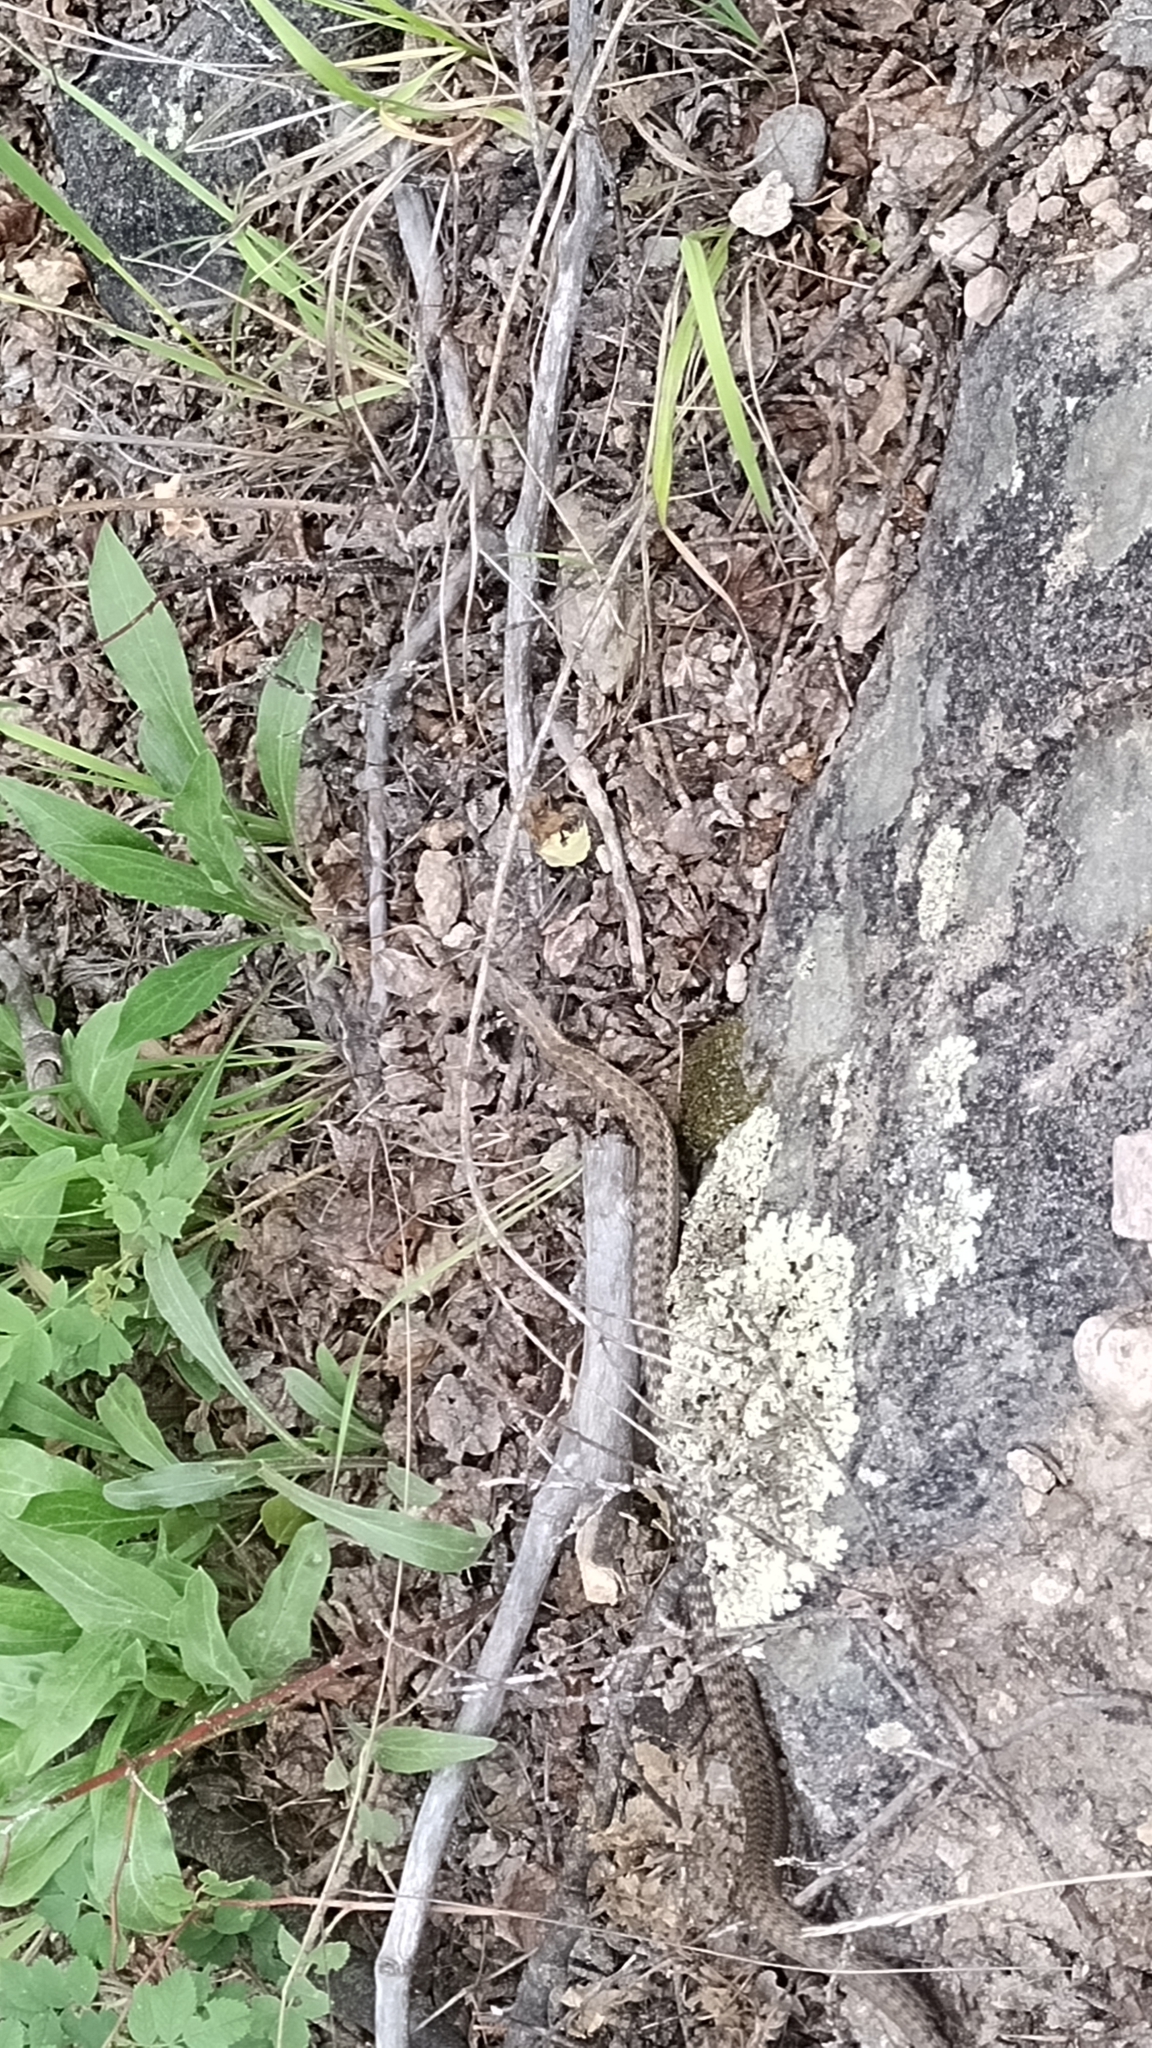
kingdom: Animalia
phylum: Chordata
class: Squamata
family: Colubridae
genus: Thamnophis
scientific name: Thamnophis elegans
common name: Western terrestrial garter snake
